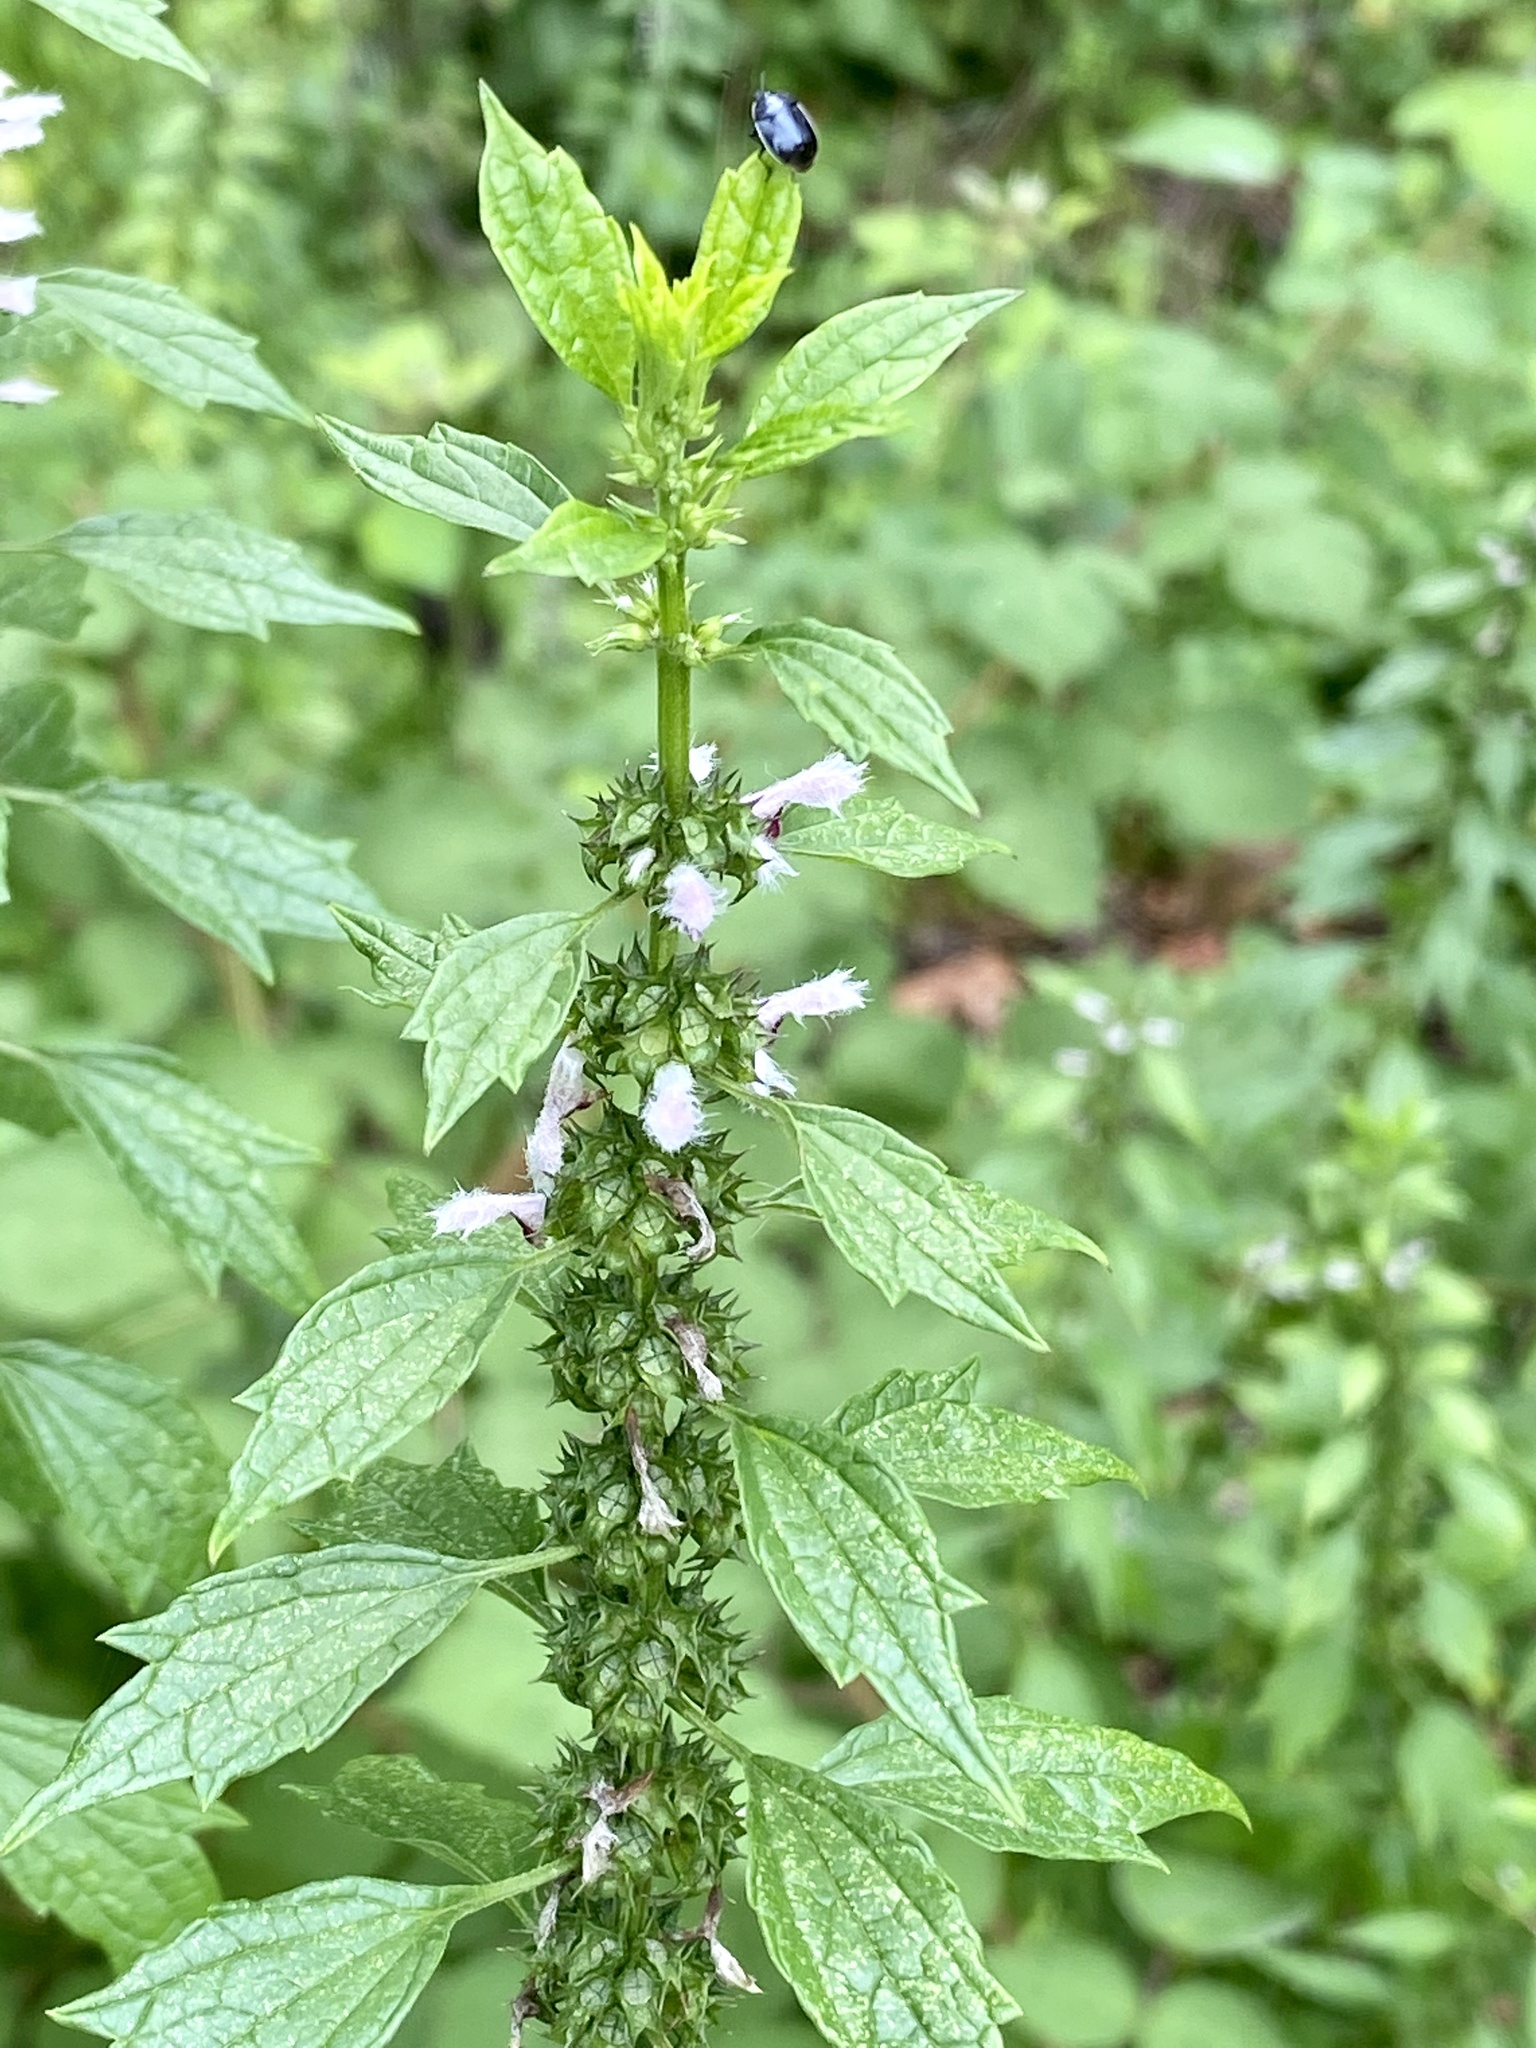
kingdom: Plantae
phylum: Tracheophyta
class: Magnoliopsida
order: Lamiales
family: Lamiaceae
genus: Leonurus
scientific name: Leonurus cardiaca
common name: Motherwort
